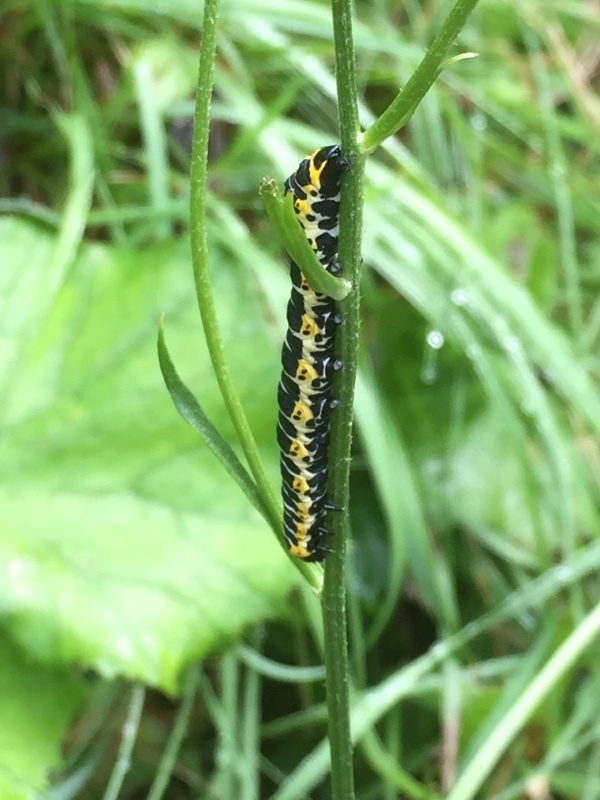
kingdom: Animalia
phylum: Arthropoda
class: Insecta
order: Lepidoptera
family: Noctuidae
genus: Cucullia
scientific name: Cucullia lactucae
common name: Lettuce shark
